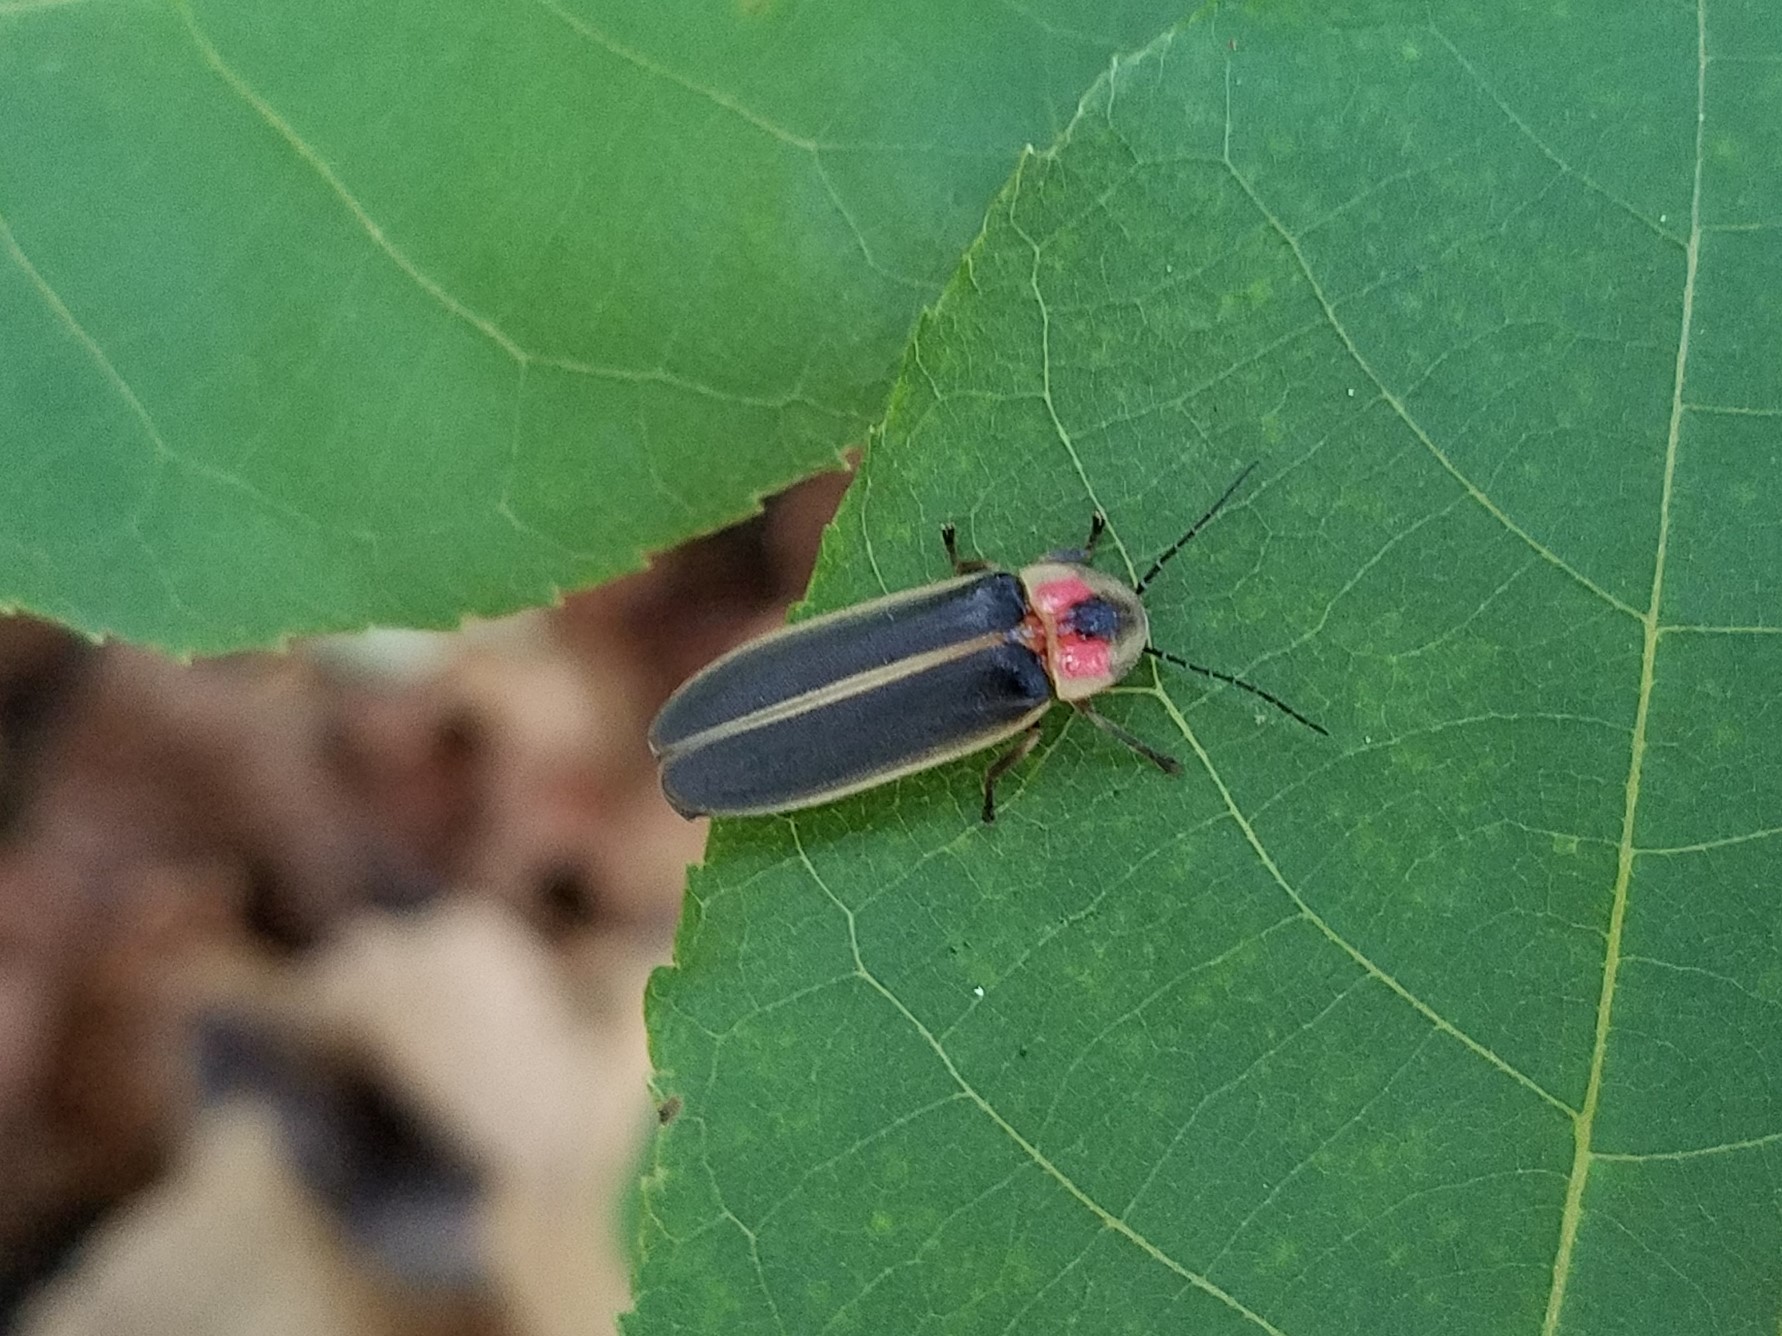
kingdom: Animalia
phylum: Arthropoda
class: Insecta
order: Coleoptera
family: Lampyridae
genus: Photinus
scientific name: Photinus
